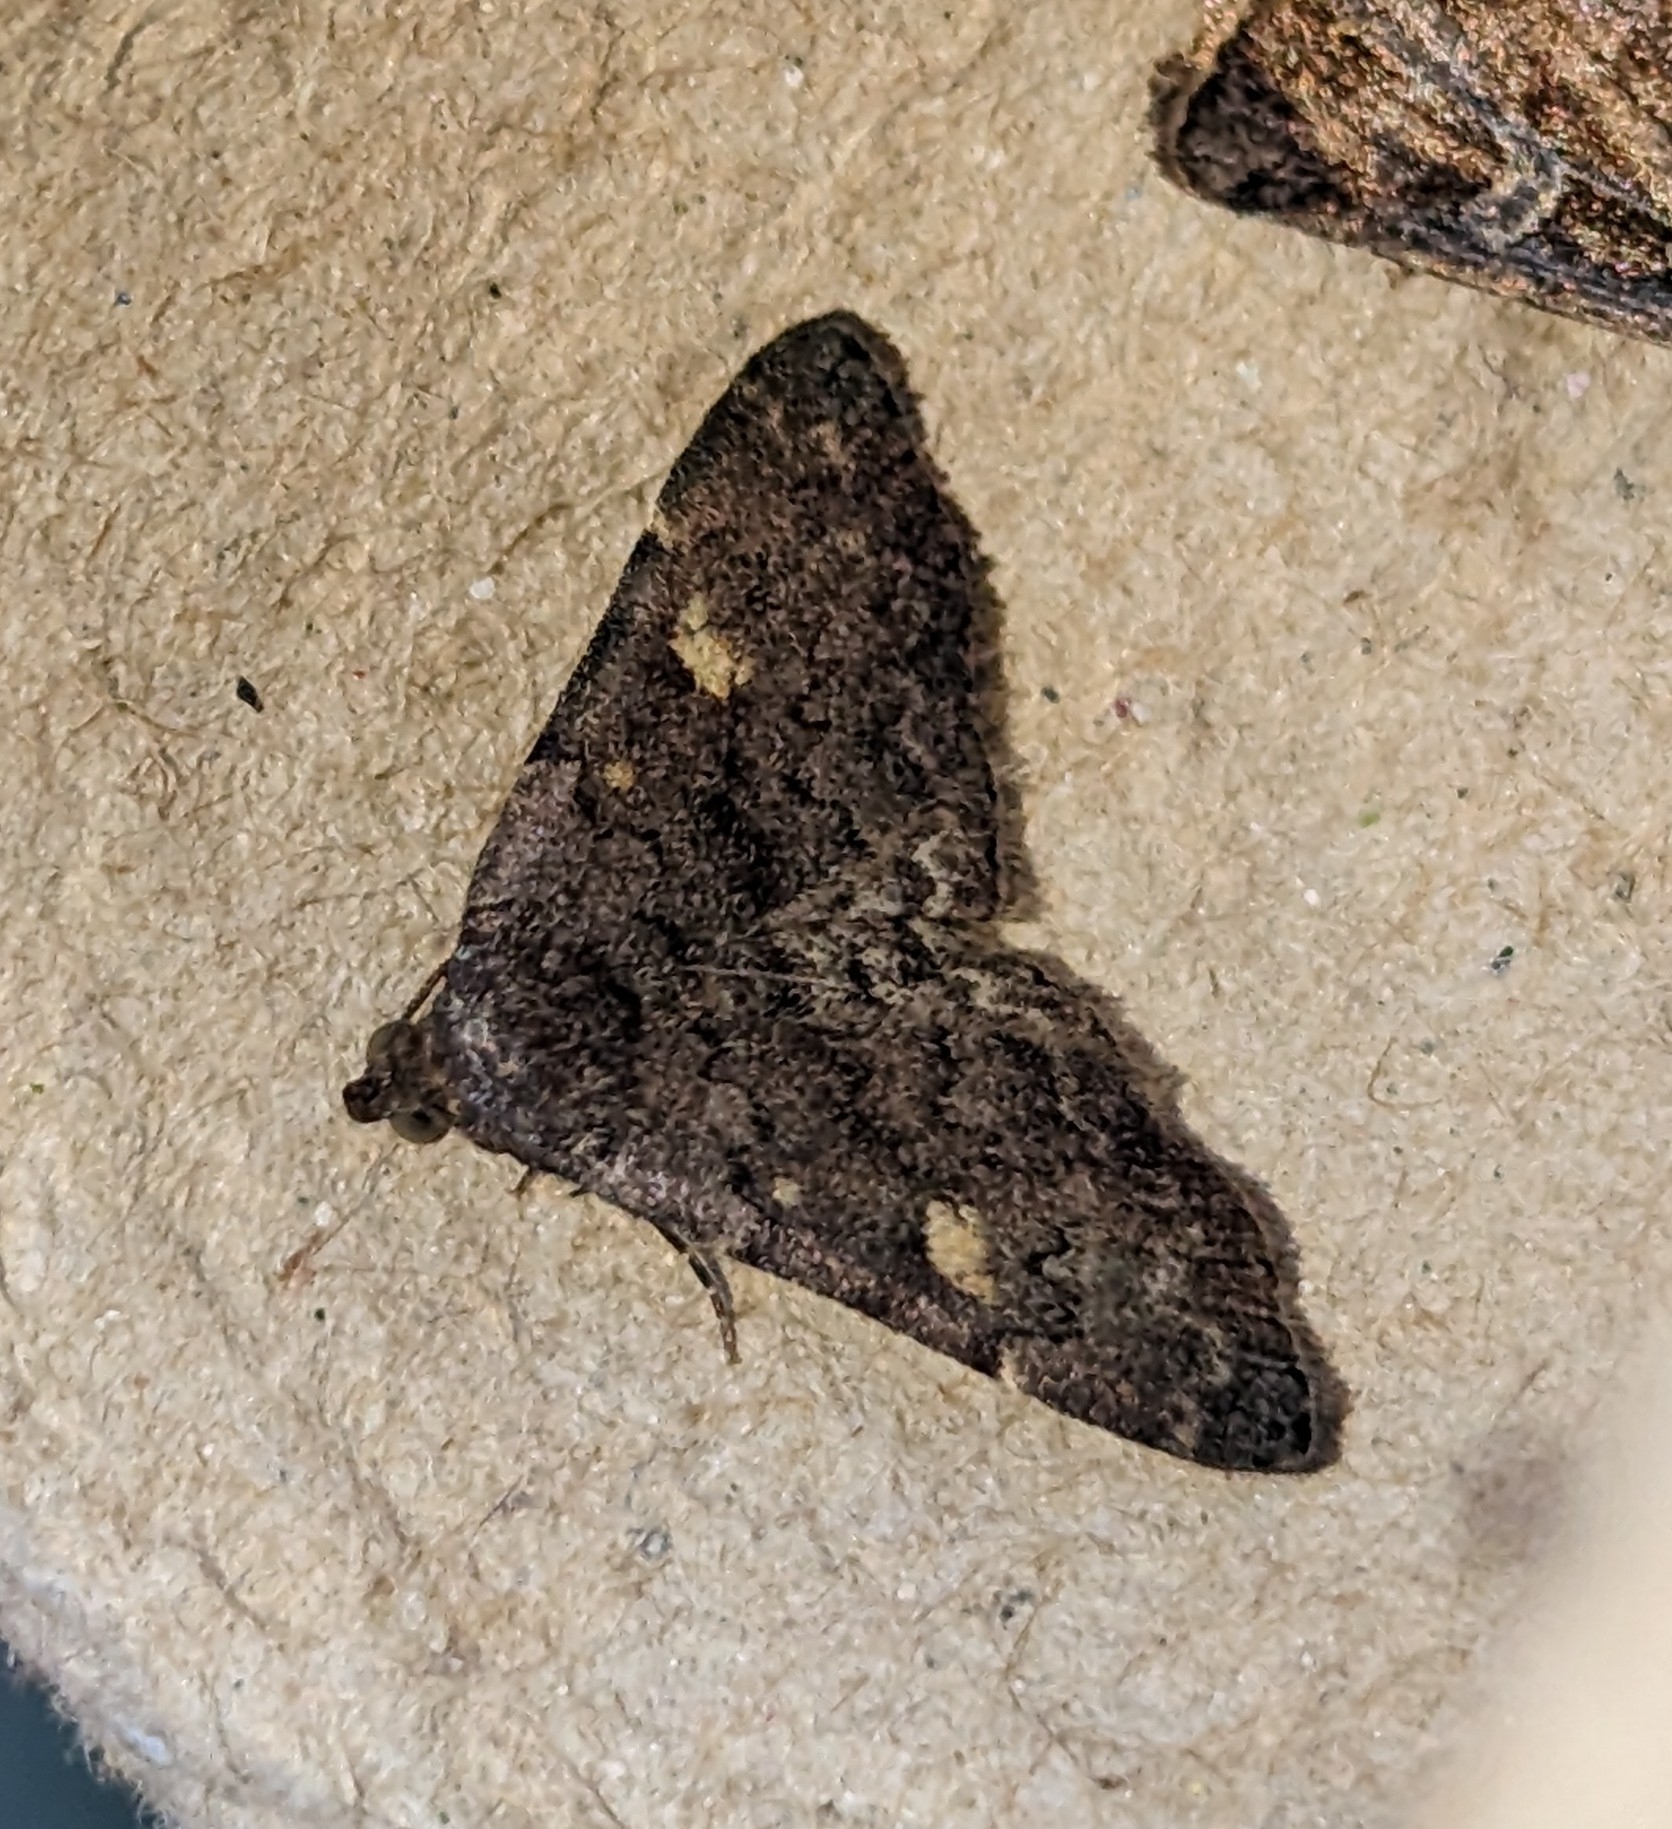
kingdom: Animalia
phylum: Arthropoda
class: Insecta
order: Lepidoptera
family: Erebidae
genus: Idia
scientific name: Idia aemula
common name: Common idia moth
